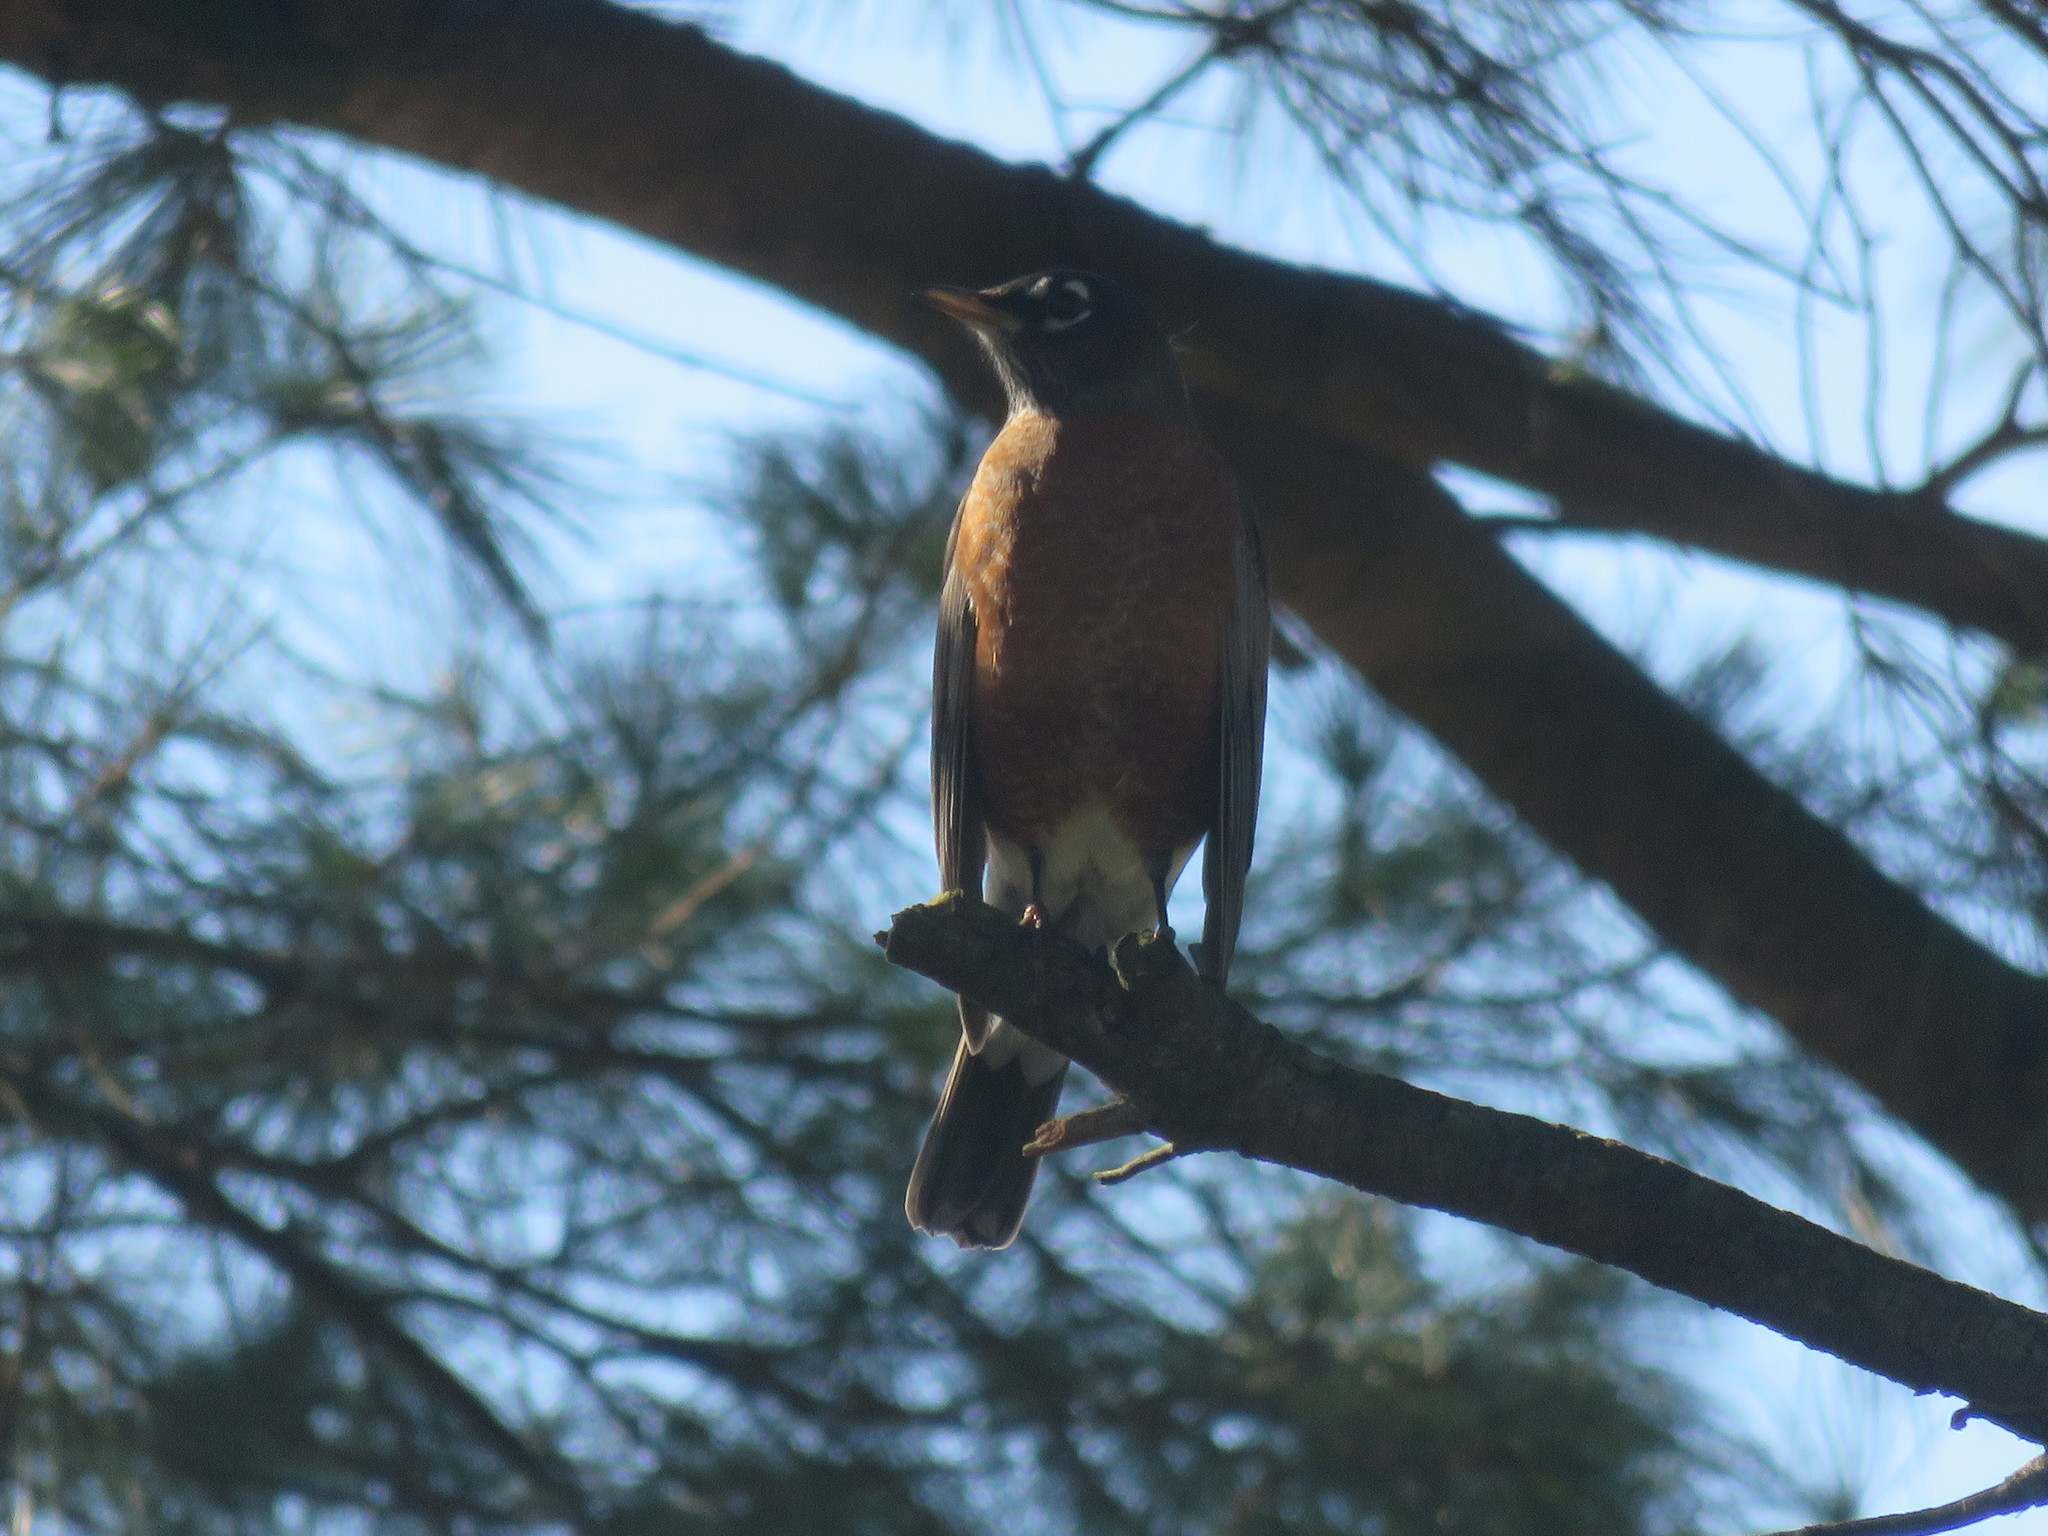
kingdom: Animalia
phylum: Chordata
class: Aves
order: Passeriformes
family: Turdidae
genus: Turdus
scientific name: Turdus migratorius
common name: American robin
